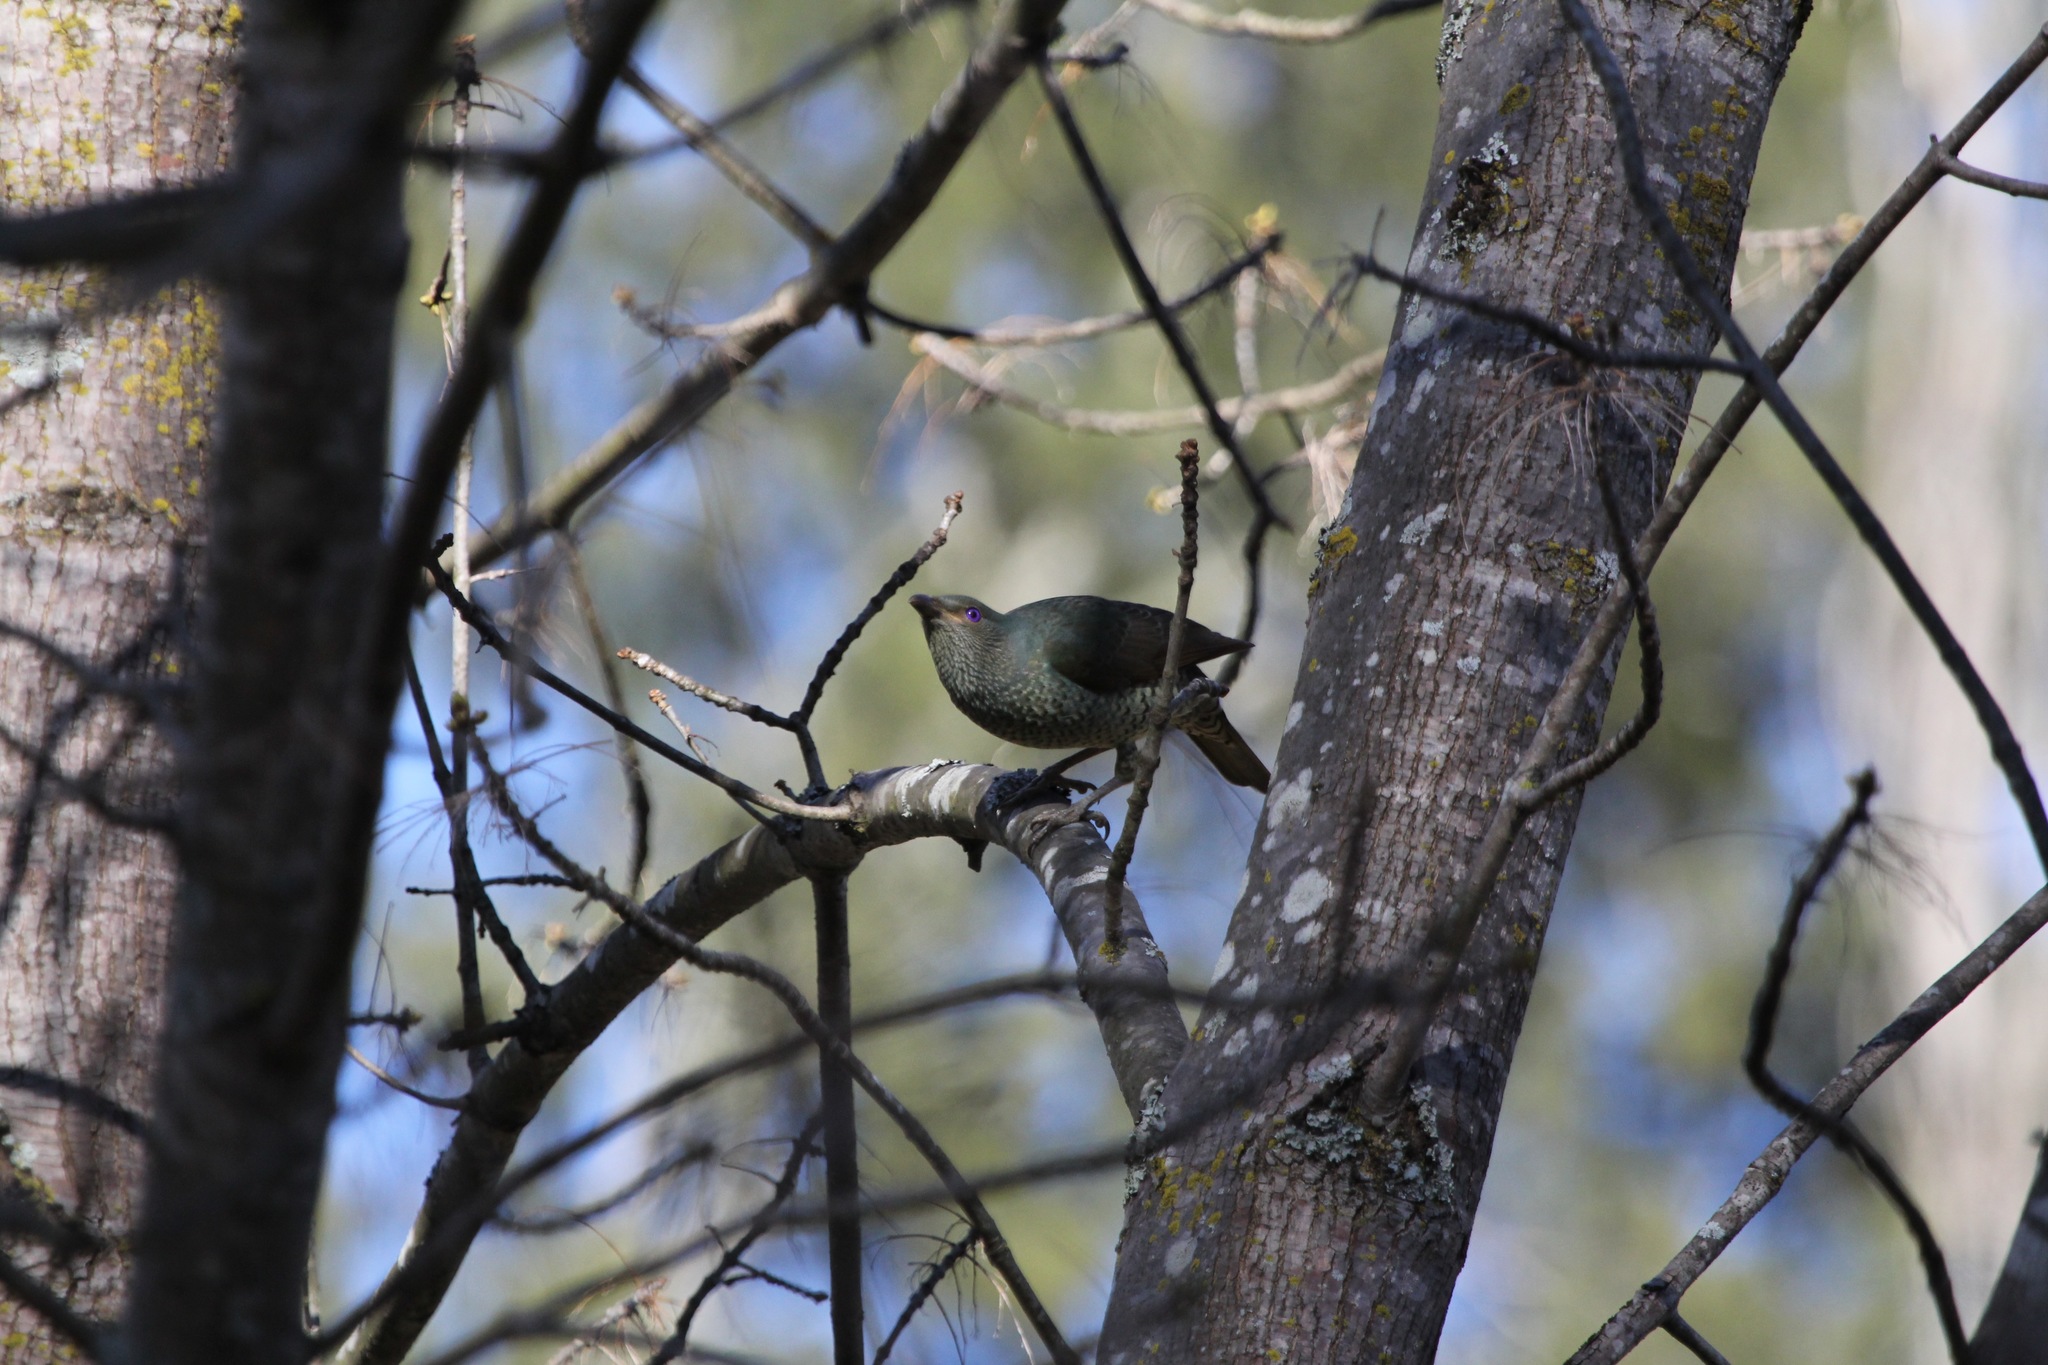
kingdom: Animalia
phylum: Chordata
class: Aves
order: Passeriformes
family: Ptilonorhynchidae
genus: Ptilonorhynchus
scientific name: Ptilonorhynchus violaceus
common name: Satin bowerbird
